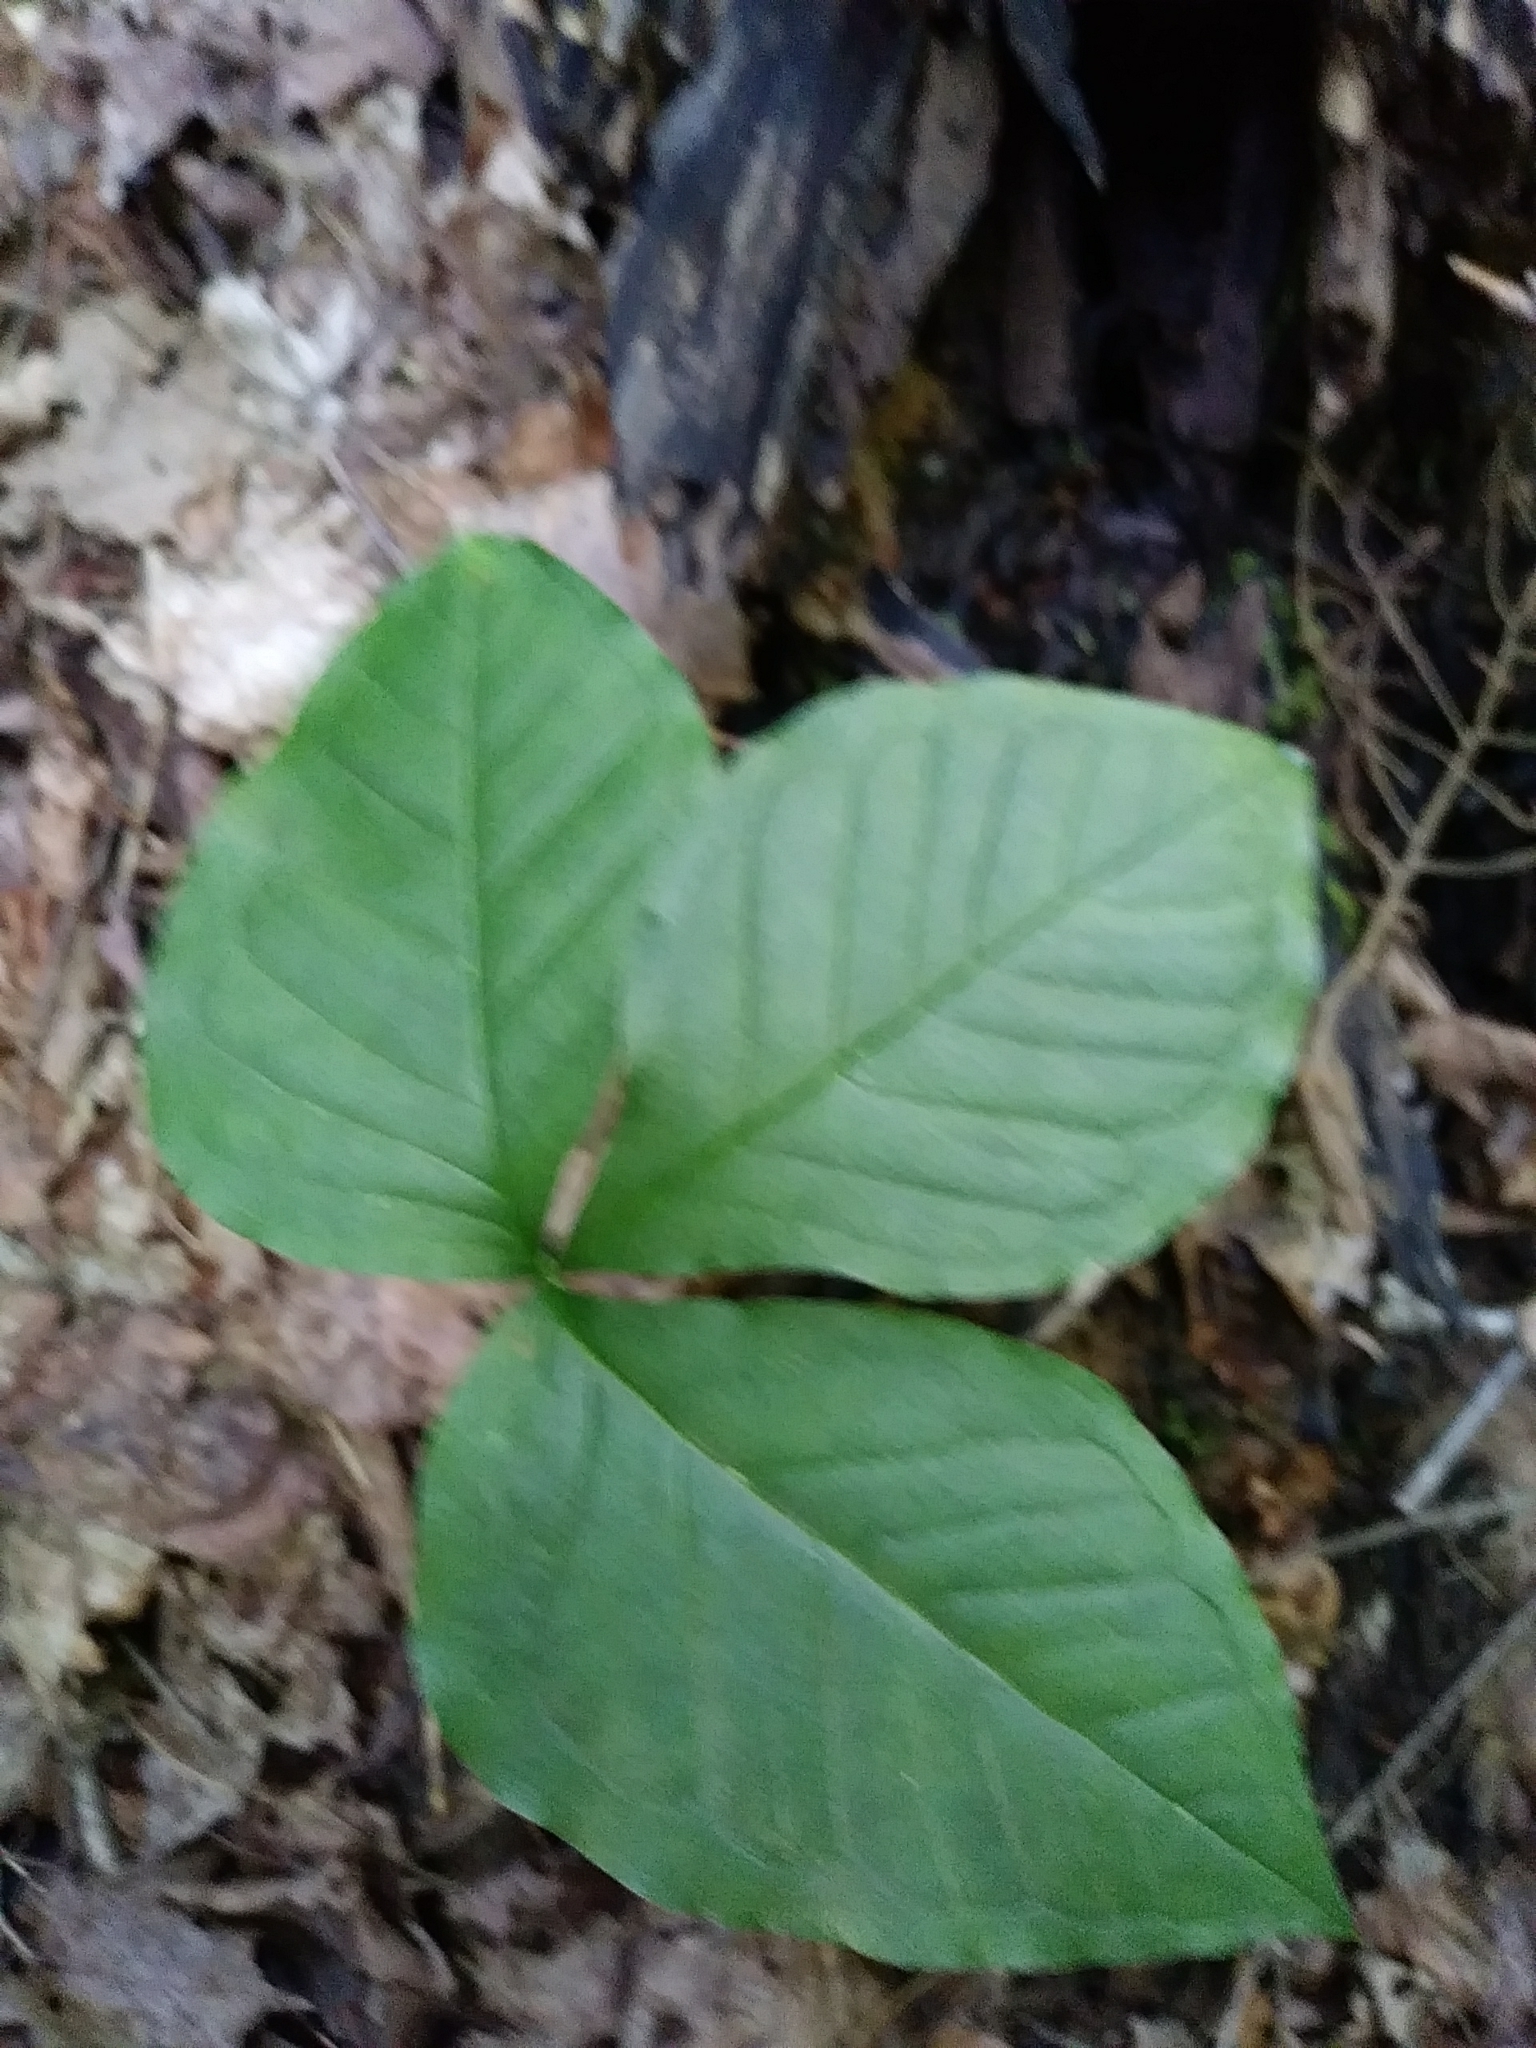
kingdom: Plantae
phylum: Tracheophyta
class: Liliopsida
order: Alismatales
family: Araceae
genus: Arisaema
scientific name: Arisaema triphyllum
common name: Jack-in-the-pulpit
